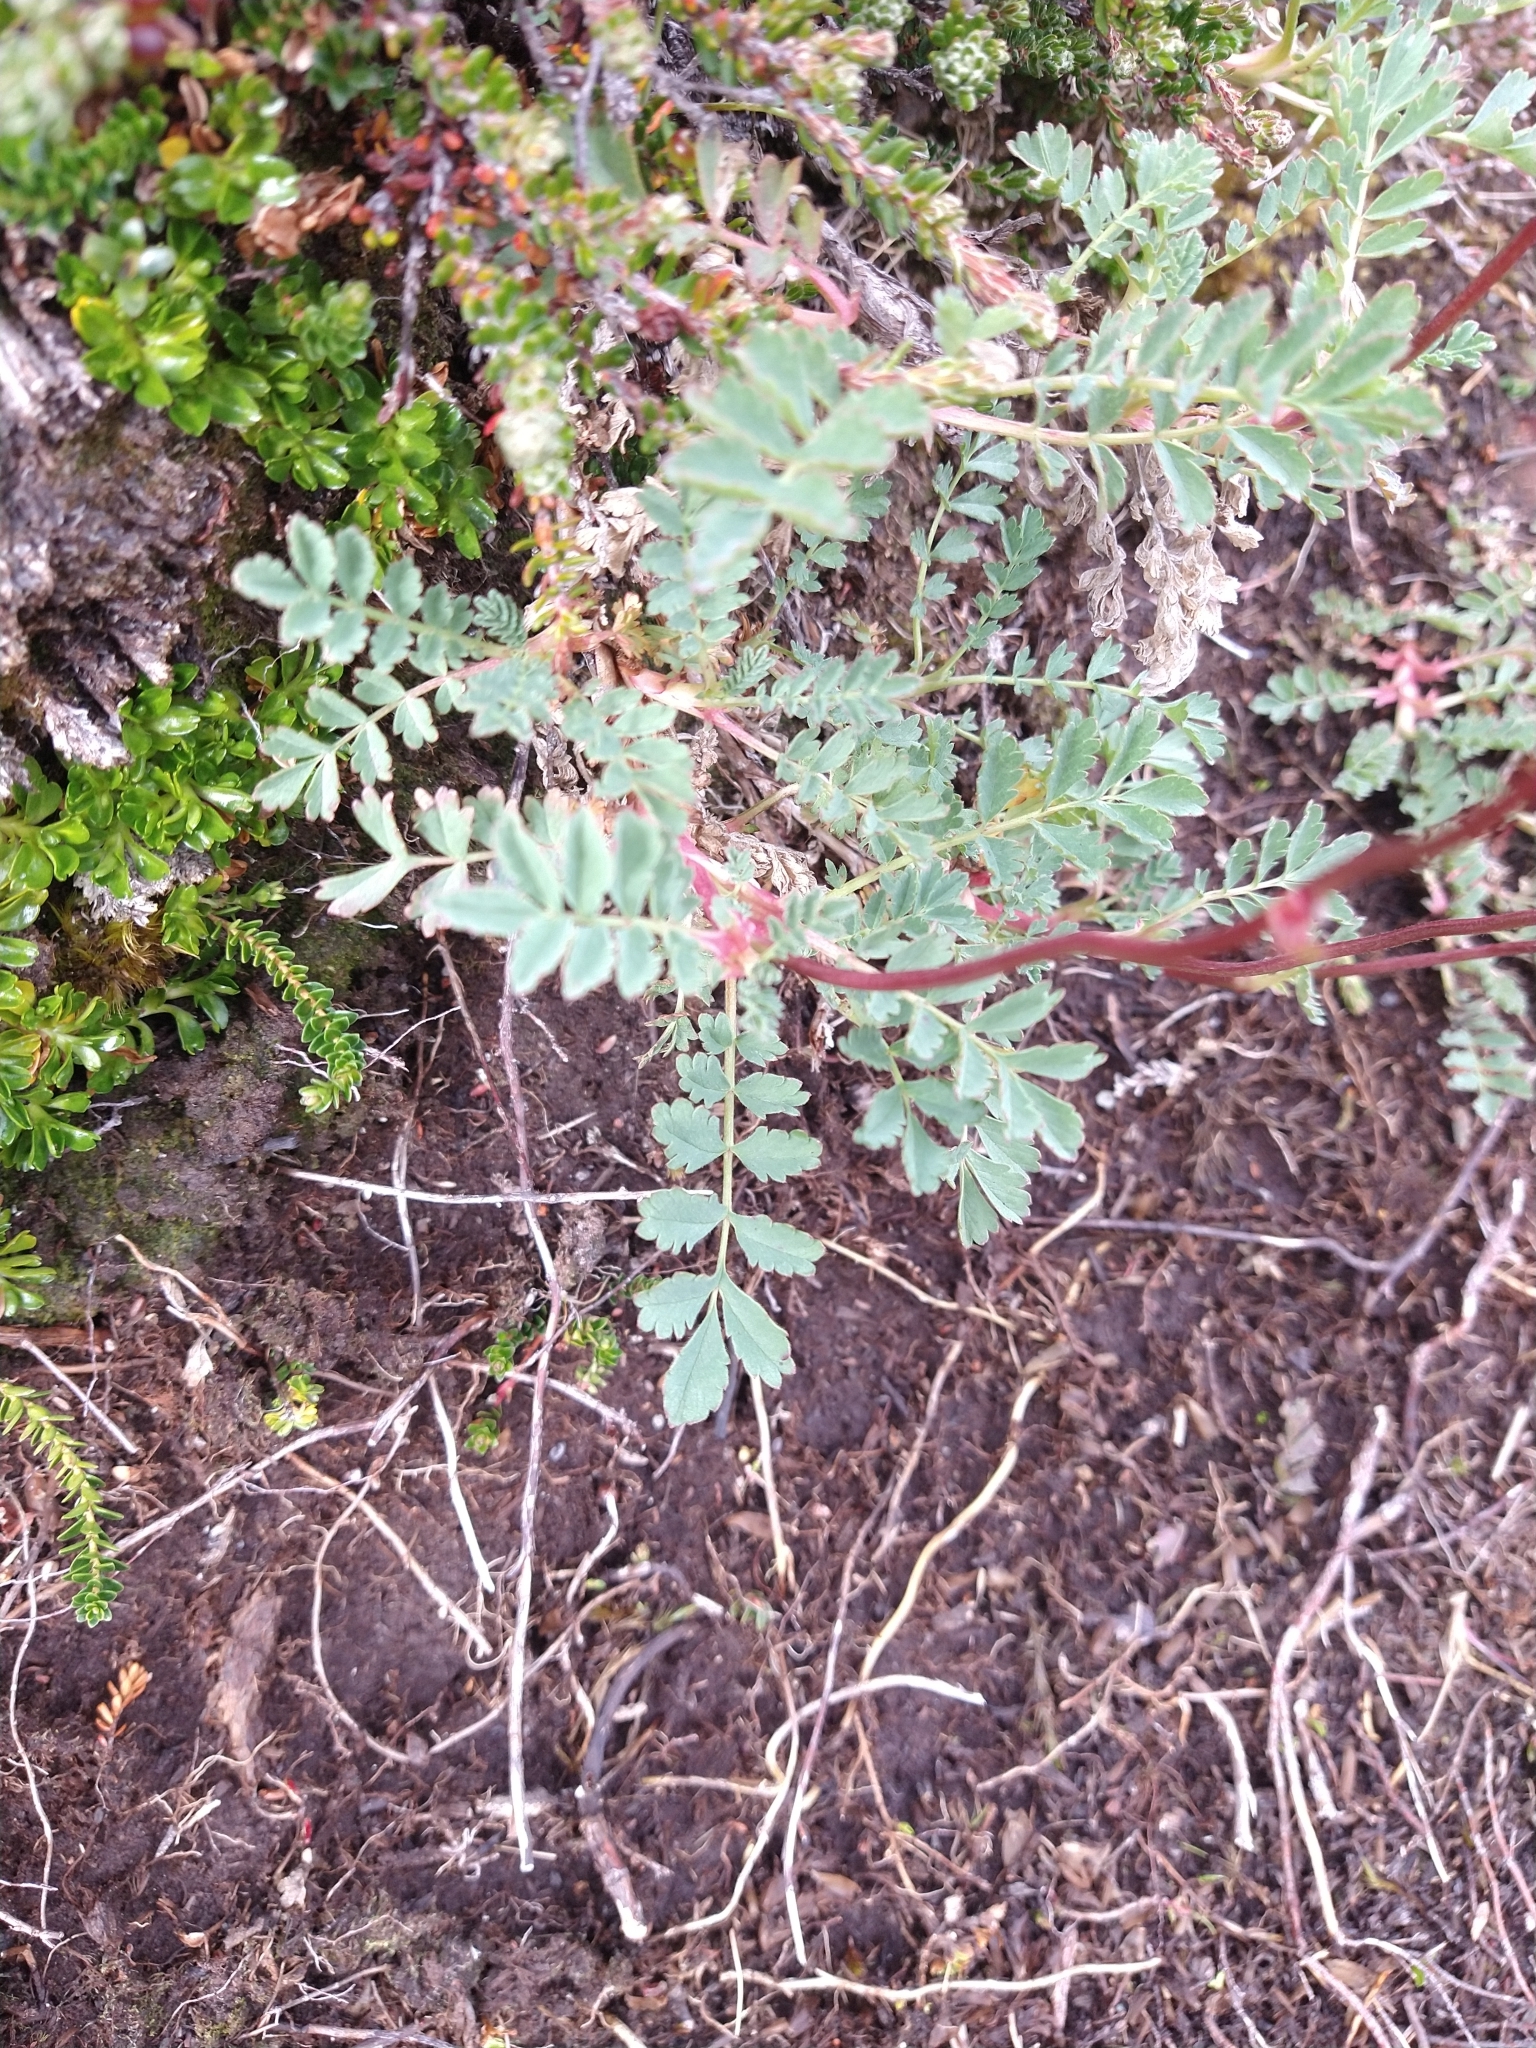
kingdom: Plantae
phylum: Tracheophyta
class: Magnoliopsida
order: Rosales
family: Rosaceae
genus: Acaena
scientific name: Acaena magellanica
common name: New zealand burr
